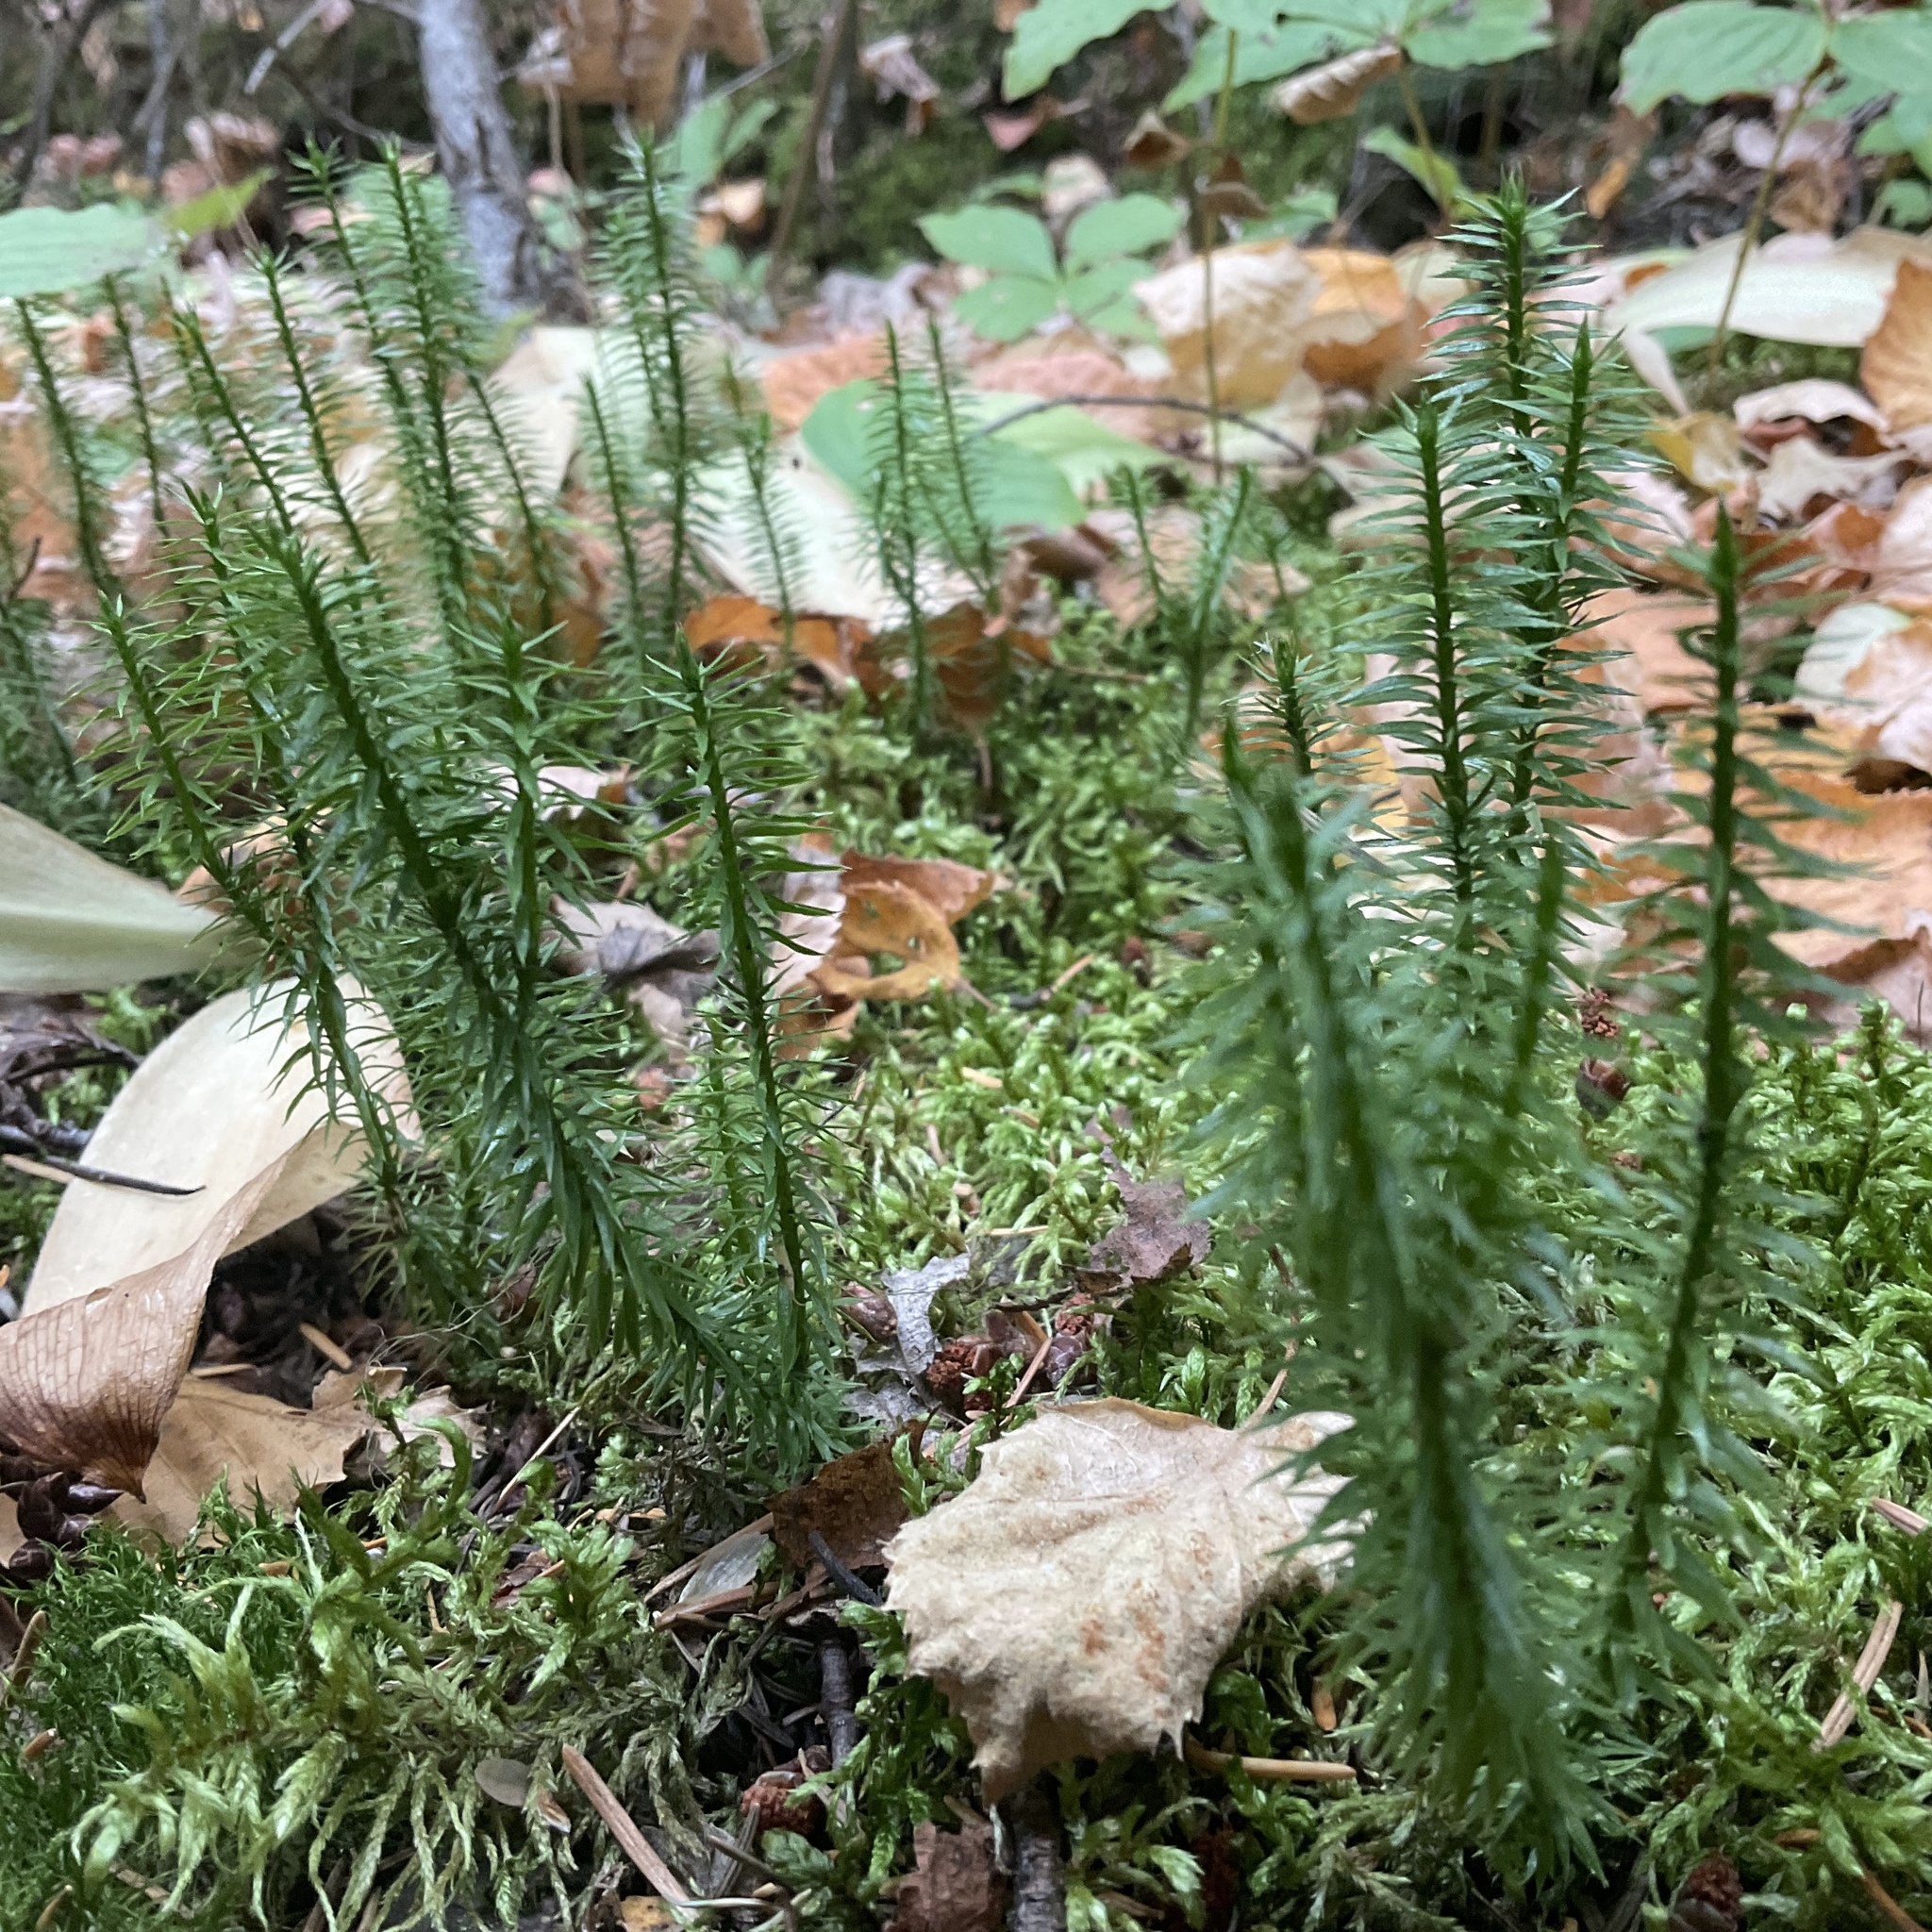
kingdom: Plantae
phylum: Tracheophyta
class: Lycopodiopsida
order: Lycopodiales
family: Lycopodiaceae
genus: Spinulum
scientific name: Spinulum annotinum
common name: Interrupted club-moss
